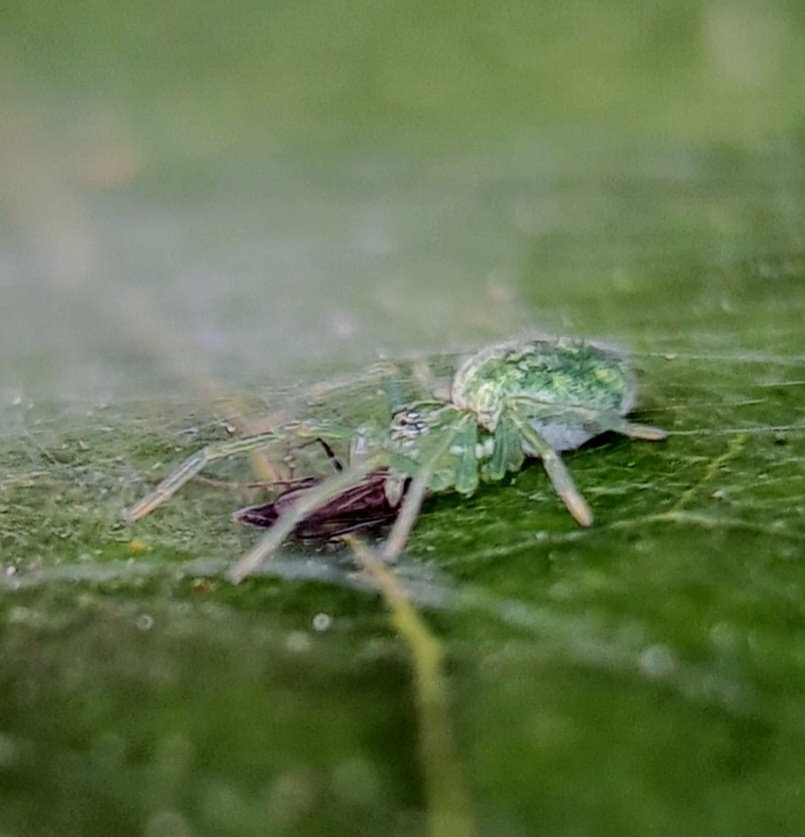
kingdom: Animalia
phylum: Arthropoda
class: Arachnida
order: Araneae
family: Dictynidae
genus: Nigma
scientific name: Nigma walckenaeri
